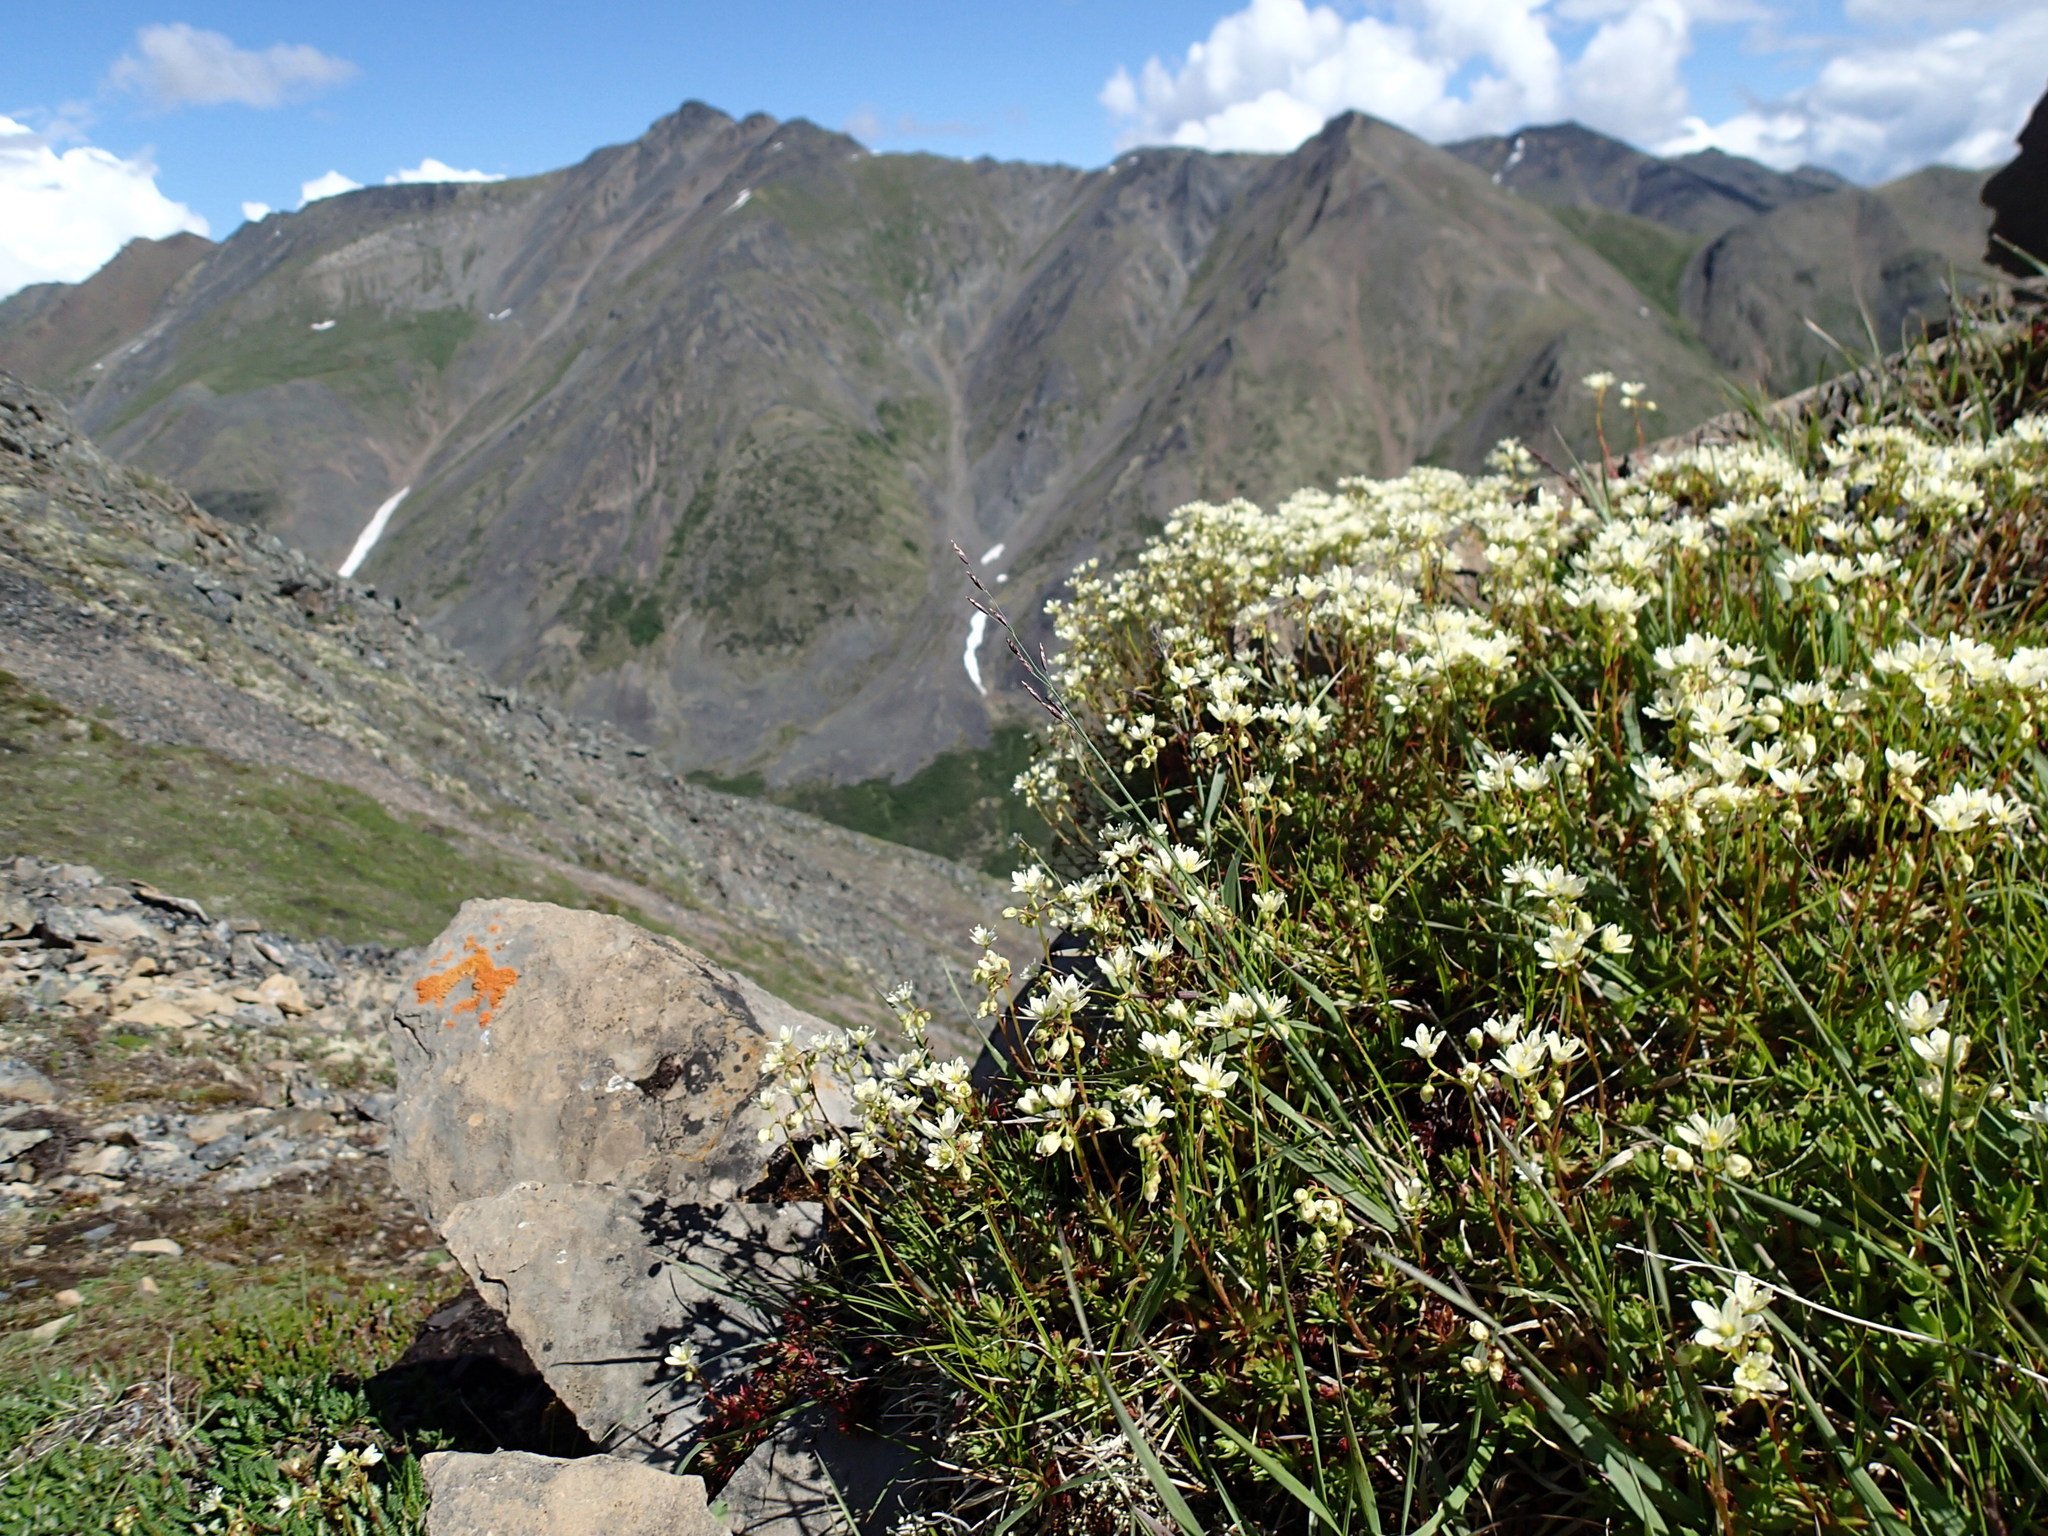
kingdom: Plantae
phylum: Tracheophyta
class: Magnoliopsida
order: Saxifragales
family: Saxifragaceae
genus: Saxifraga
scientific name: Saxifraga tricuspidata
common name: Prickly saxifrage
